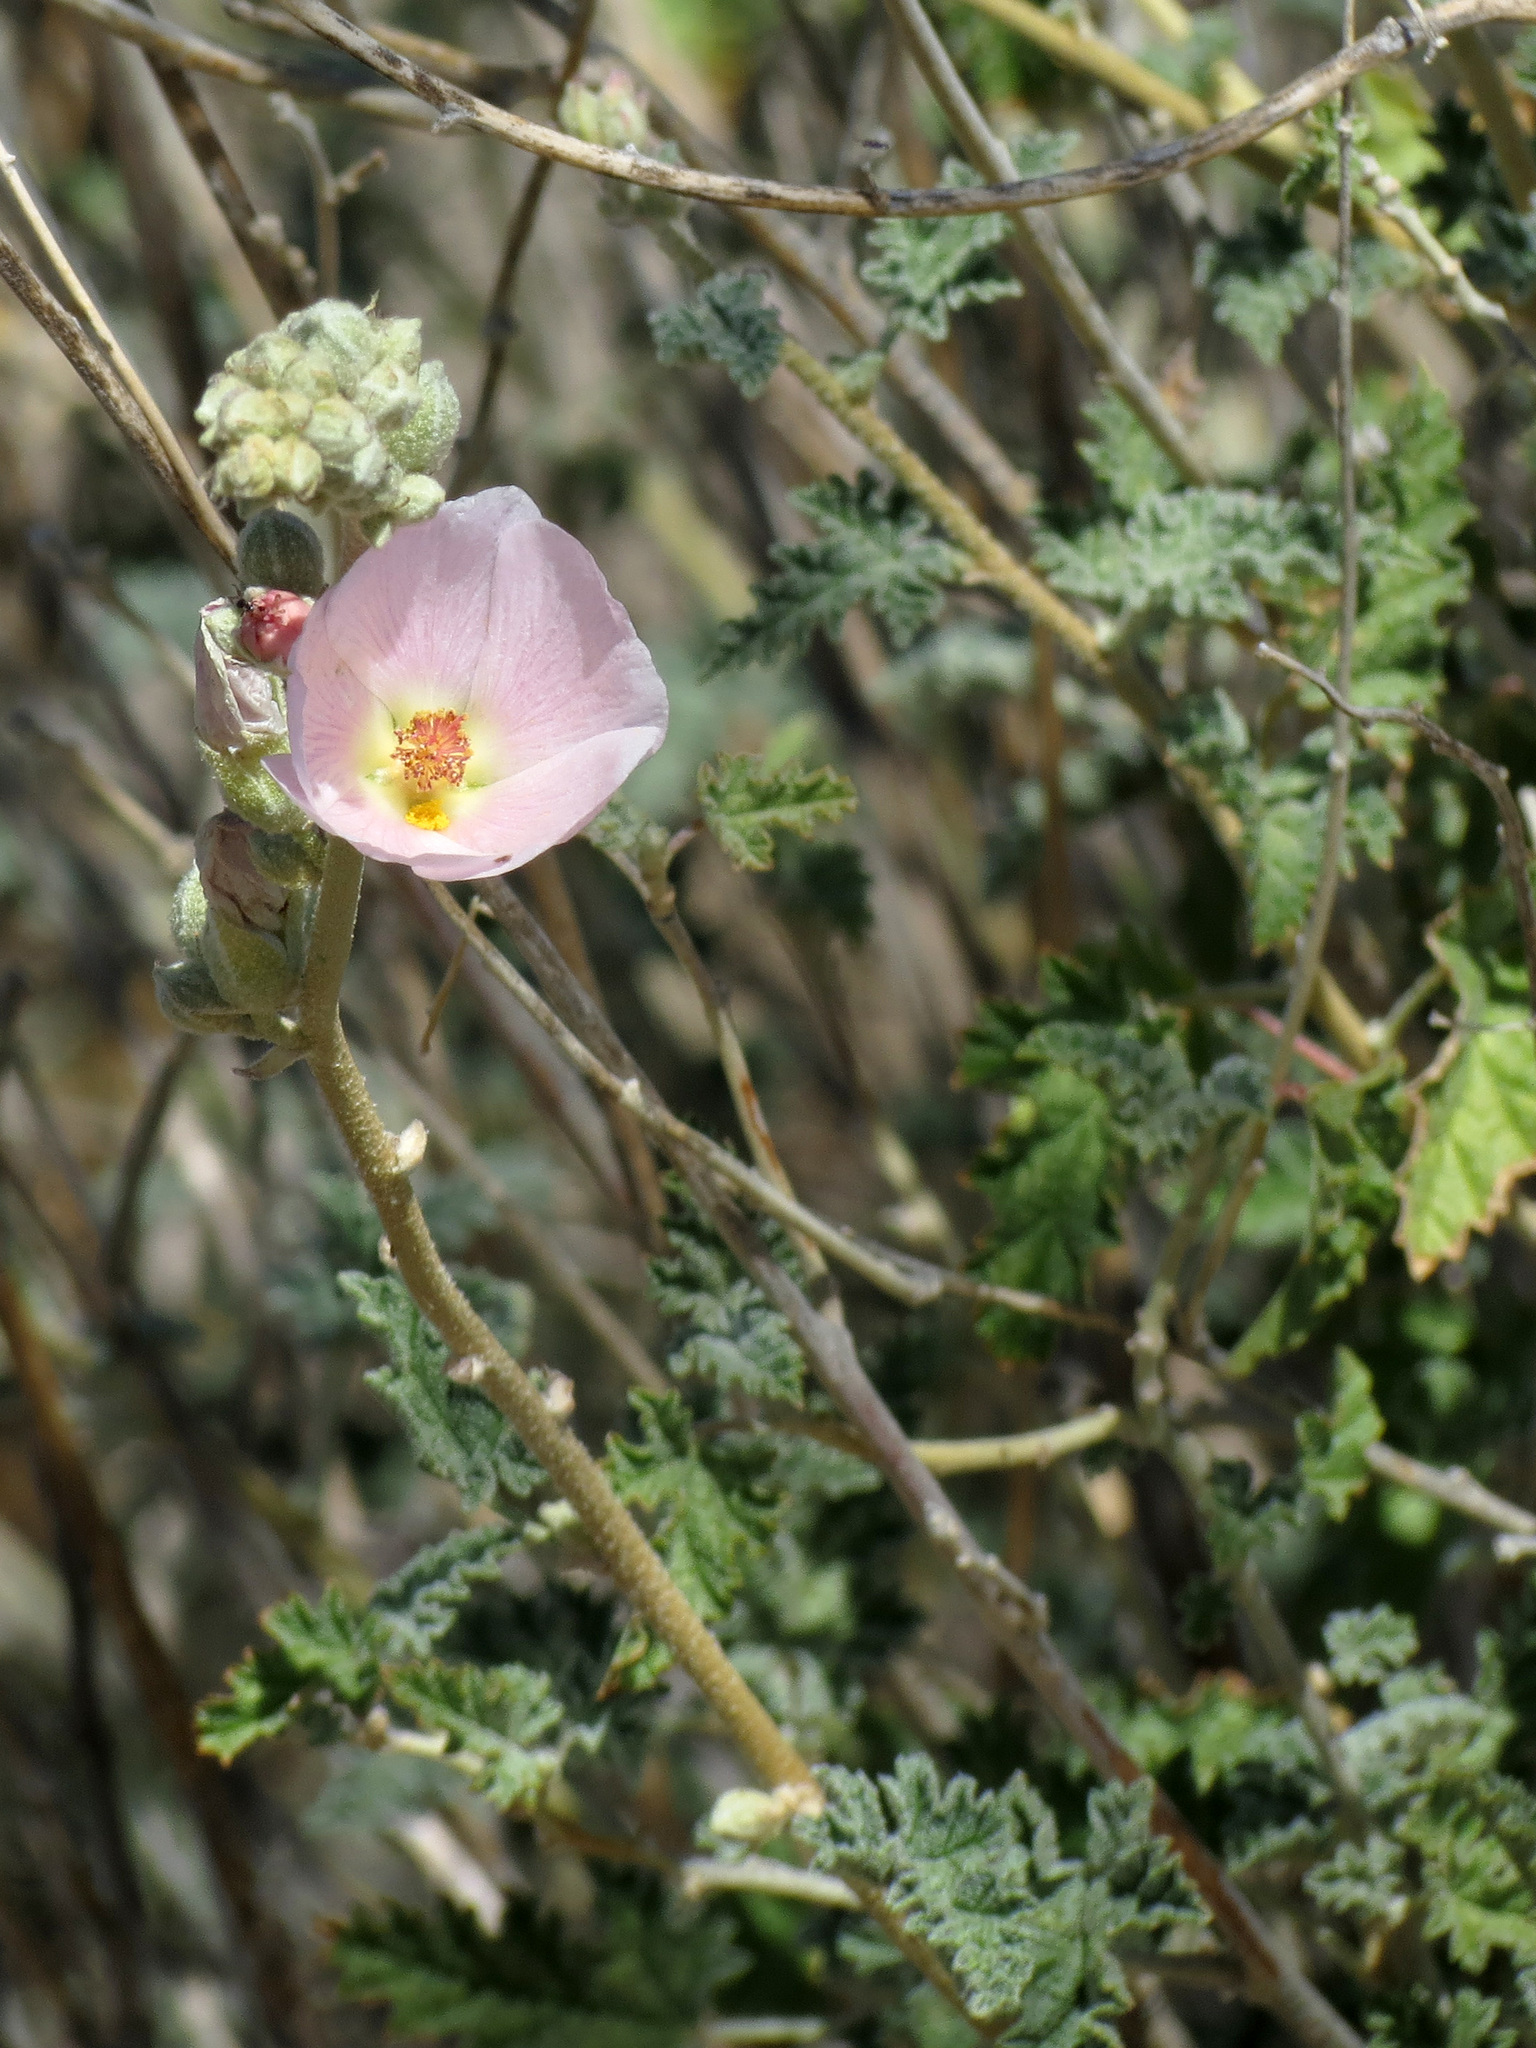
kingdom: Plantae
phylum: Tracheophyta
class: Magnoliopsida
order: Malvales
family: Malvaceae
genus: Sphaeralcea
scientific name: Sphaeralcea ambigua
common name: Apricot globe-mallow
